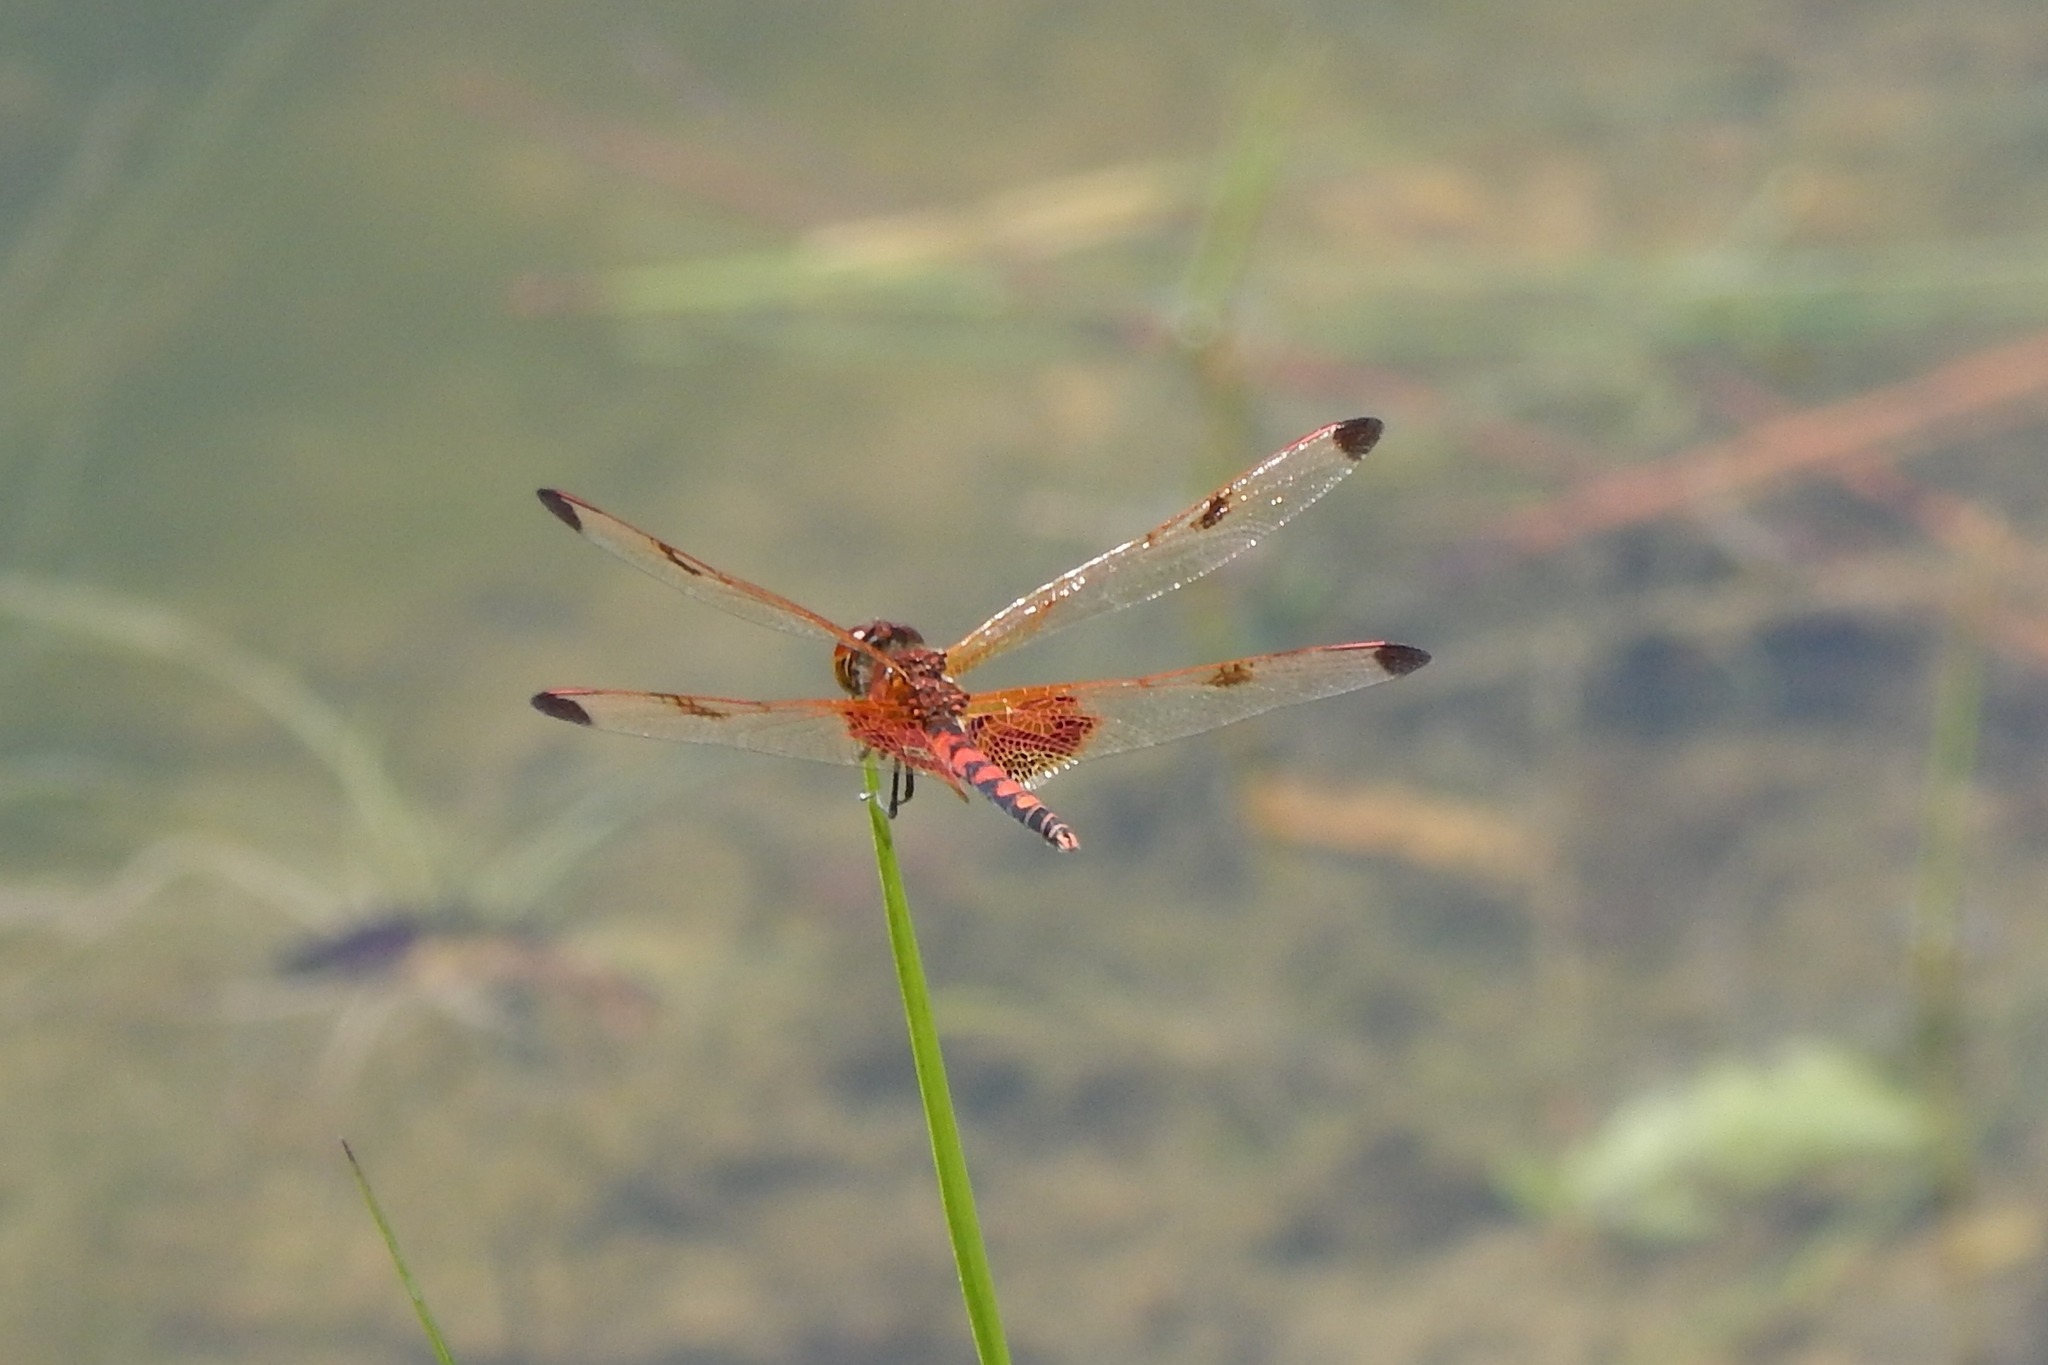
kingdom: Animalia
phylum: Arthropoda
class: Insecta
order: Odonata
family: Libellulidae
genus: Celithemis
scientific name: Celithemis elisa
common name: Calico pennant
